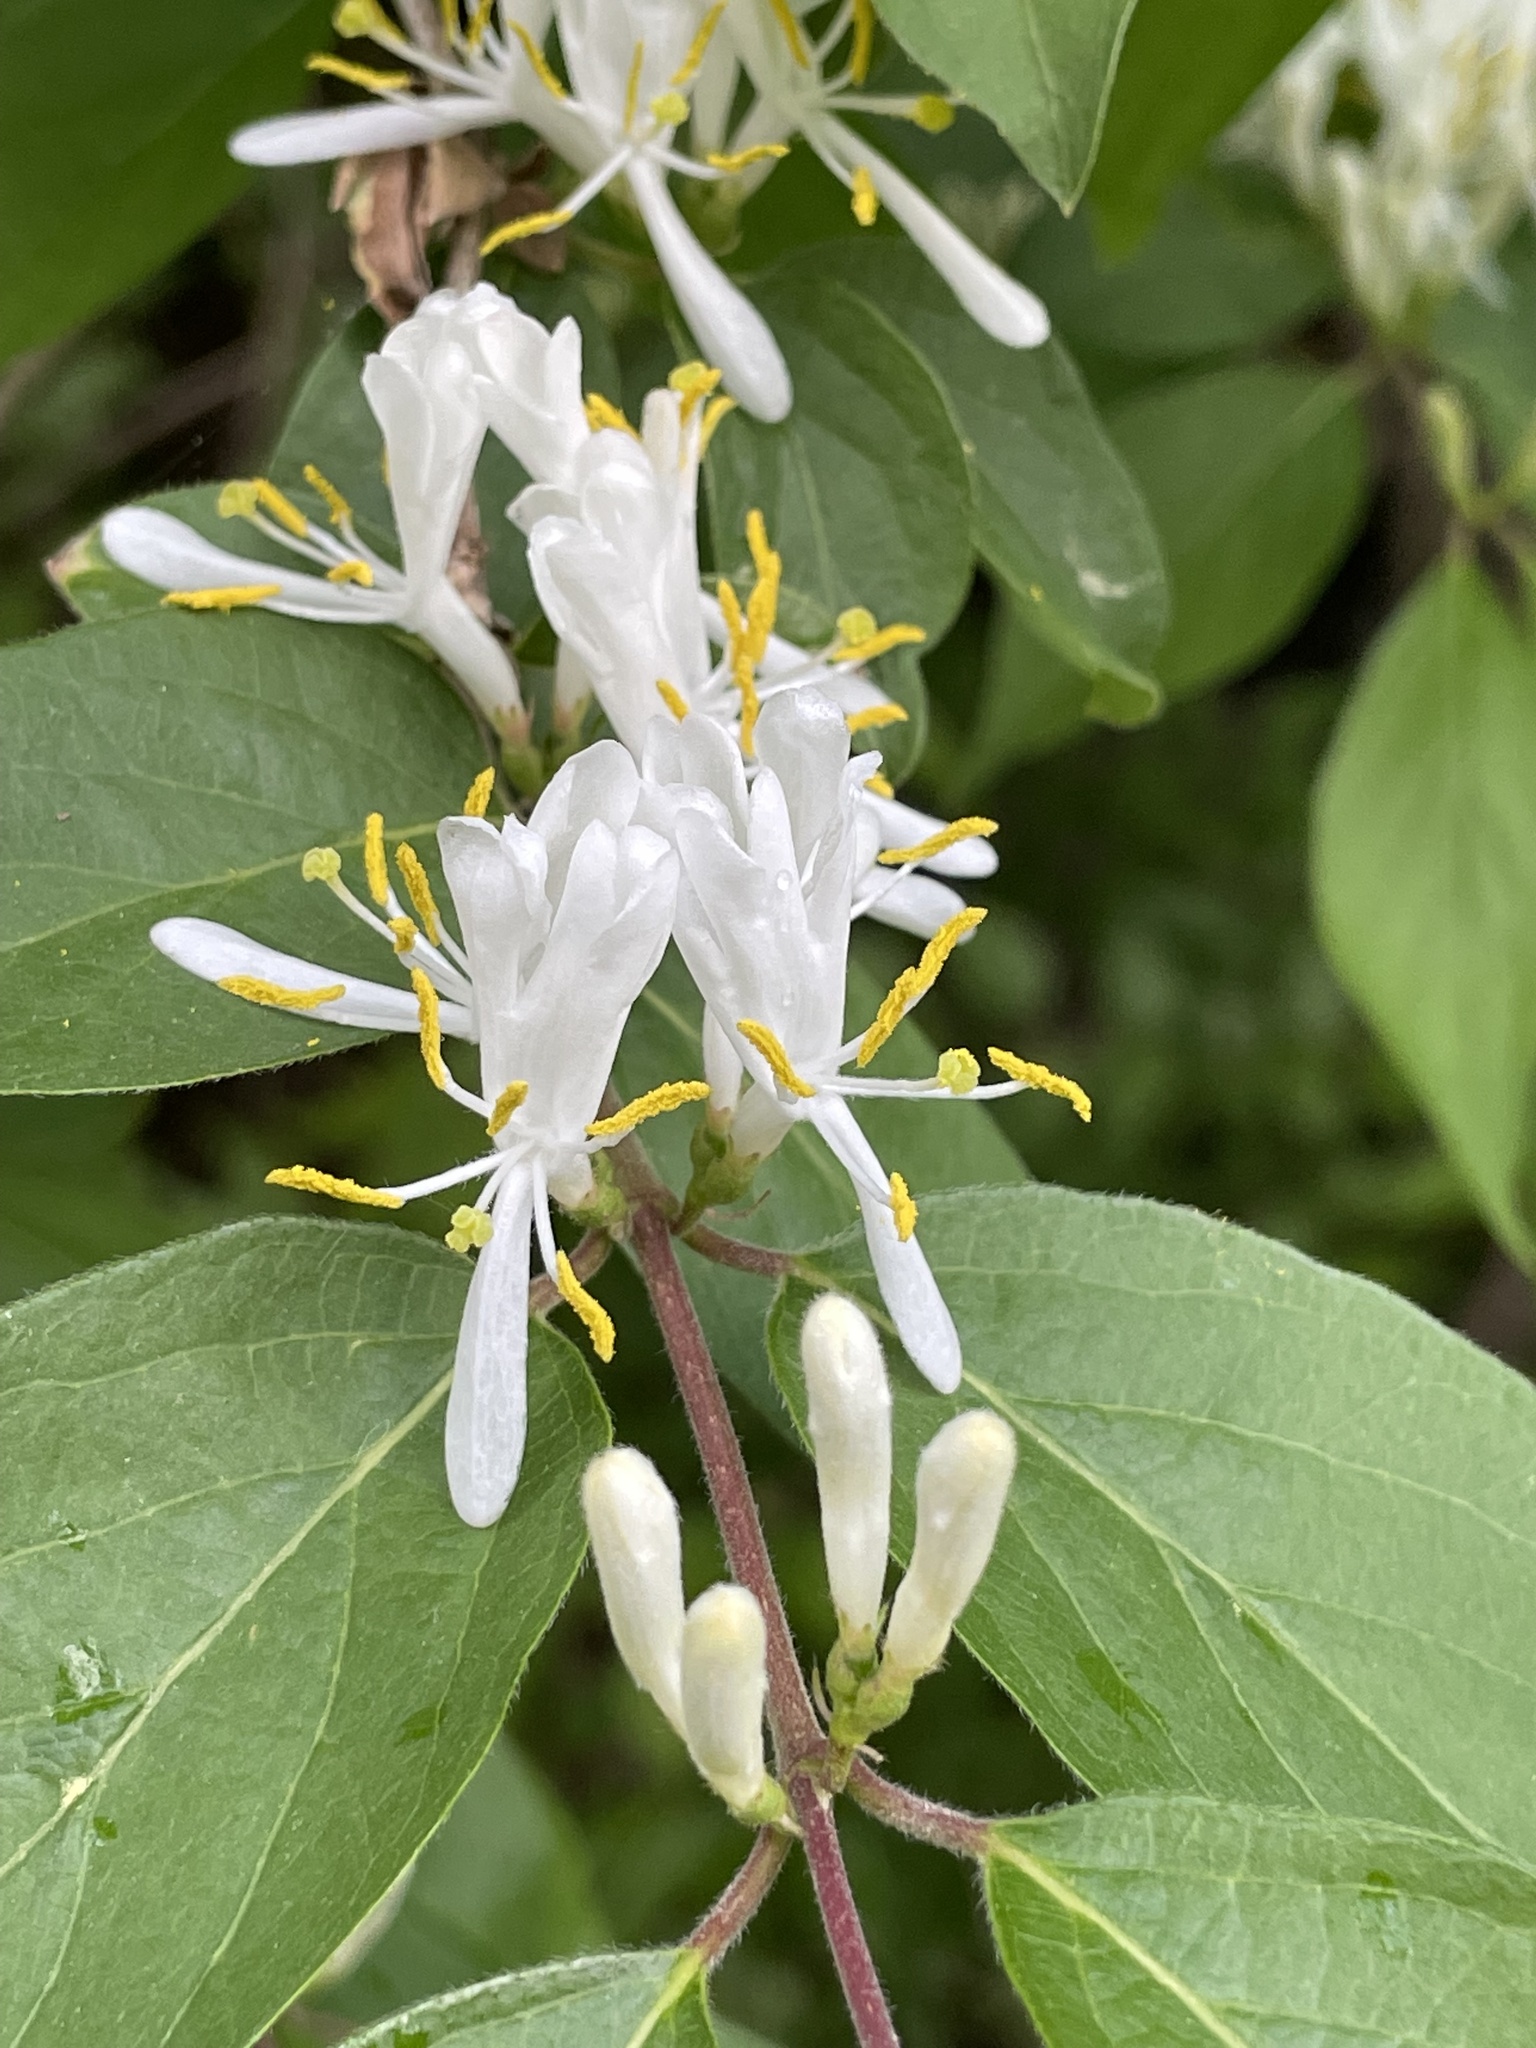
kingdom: Plantae
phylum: Tracheophyta
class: Magnoliopsida
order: Dipsacales
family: Caprifoliaceae
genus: Lonicera
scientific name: Lonicera maackii
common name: Amur honeysuckle
